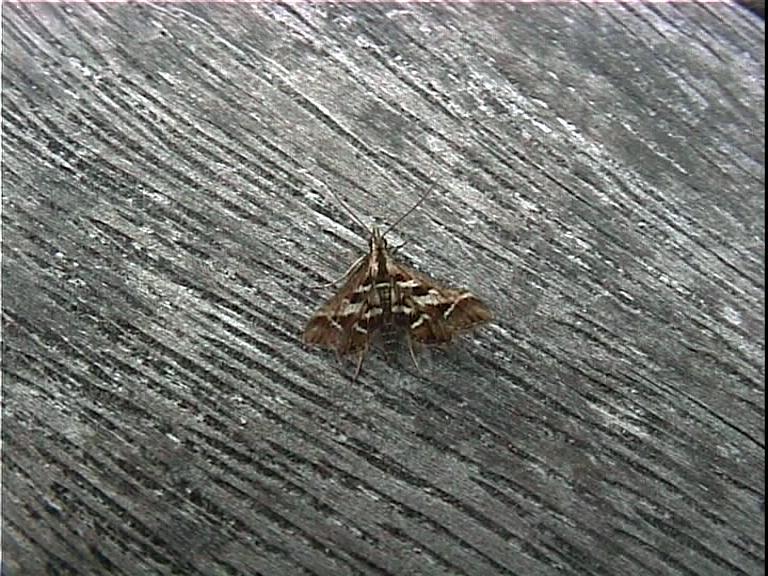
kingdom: Animalia
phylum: Arthropoda
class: Insecta
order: Lepidoptera
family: Crambidae
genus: Diasemia
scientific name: Diasemia grammalis
